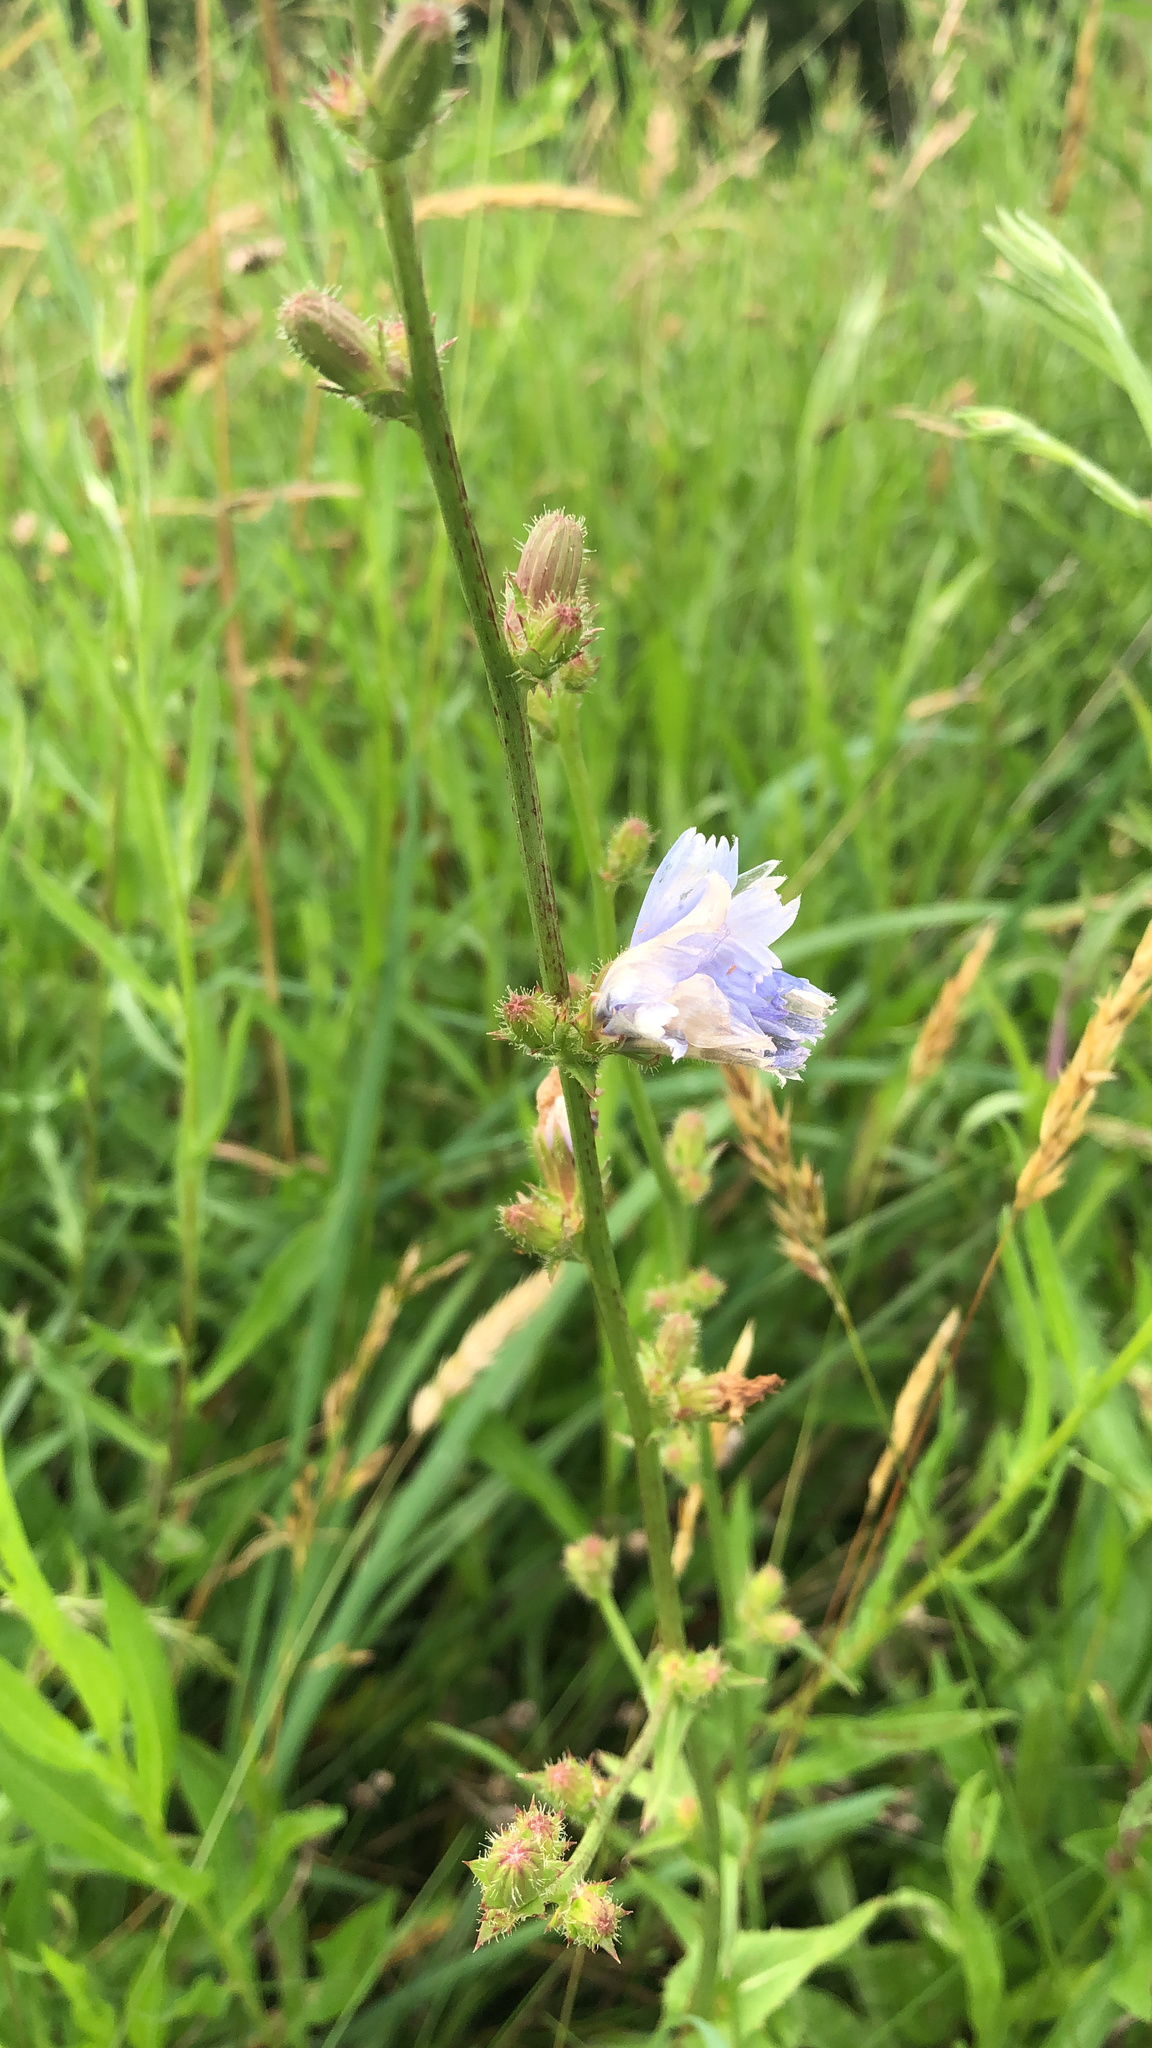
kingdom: Plantae
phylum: Tracheophyta
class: Magnoliopsida
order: Asterales
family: Asteraceae
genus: Cichorium
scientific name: Cichorium intybus
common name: Chicory
